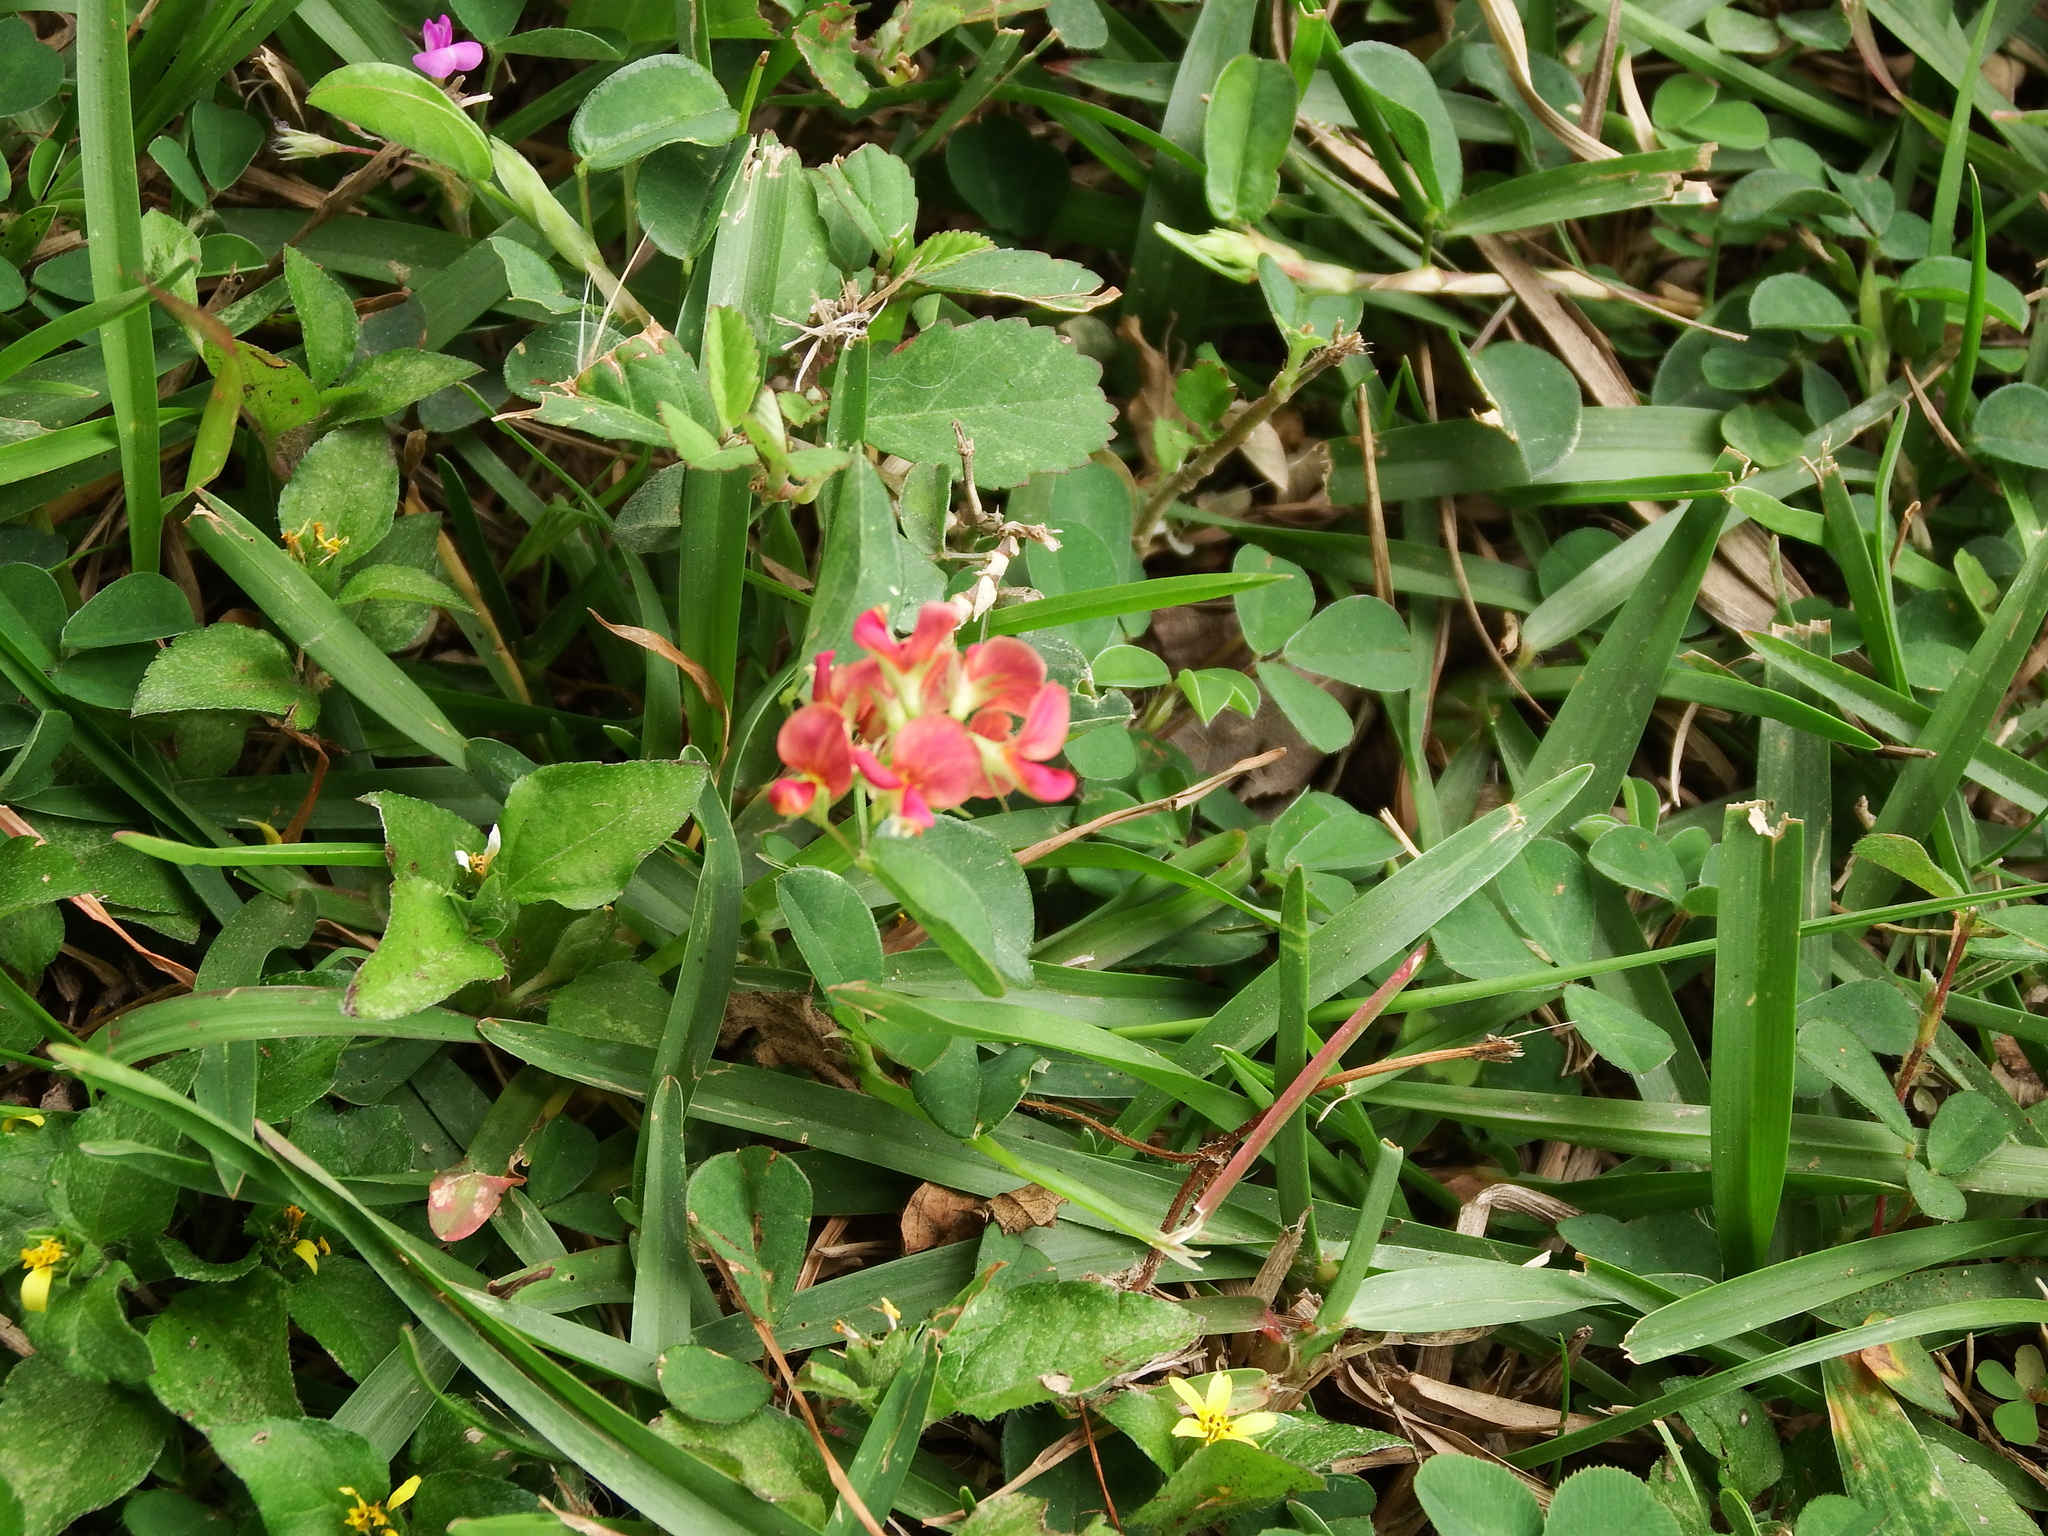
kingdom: Plantae
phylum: Tracheophyta
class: Magnoliopsida
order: Fabales
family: Fabaceae
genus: Alysicarpus
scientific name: Alysicarpus vaginalis
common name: White moneywort
